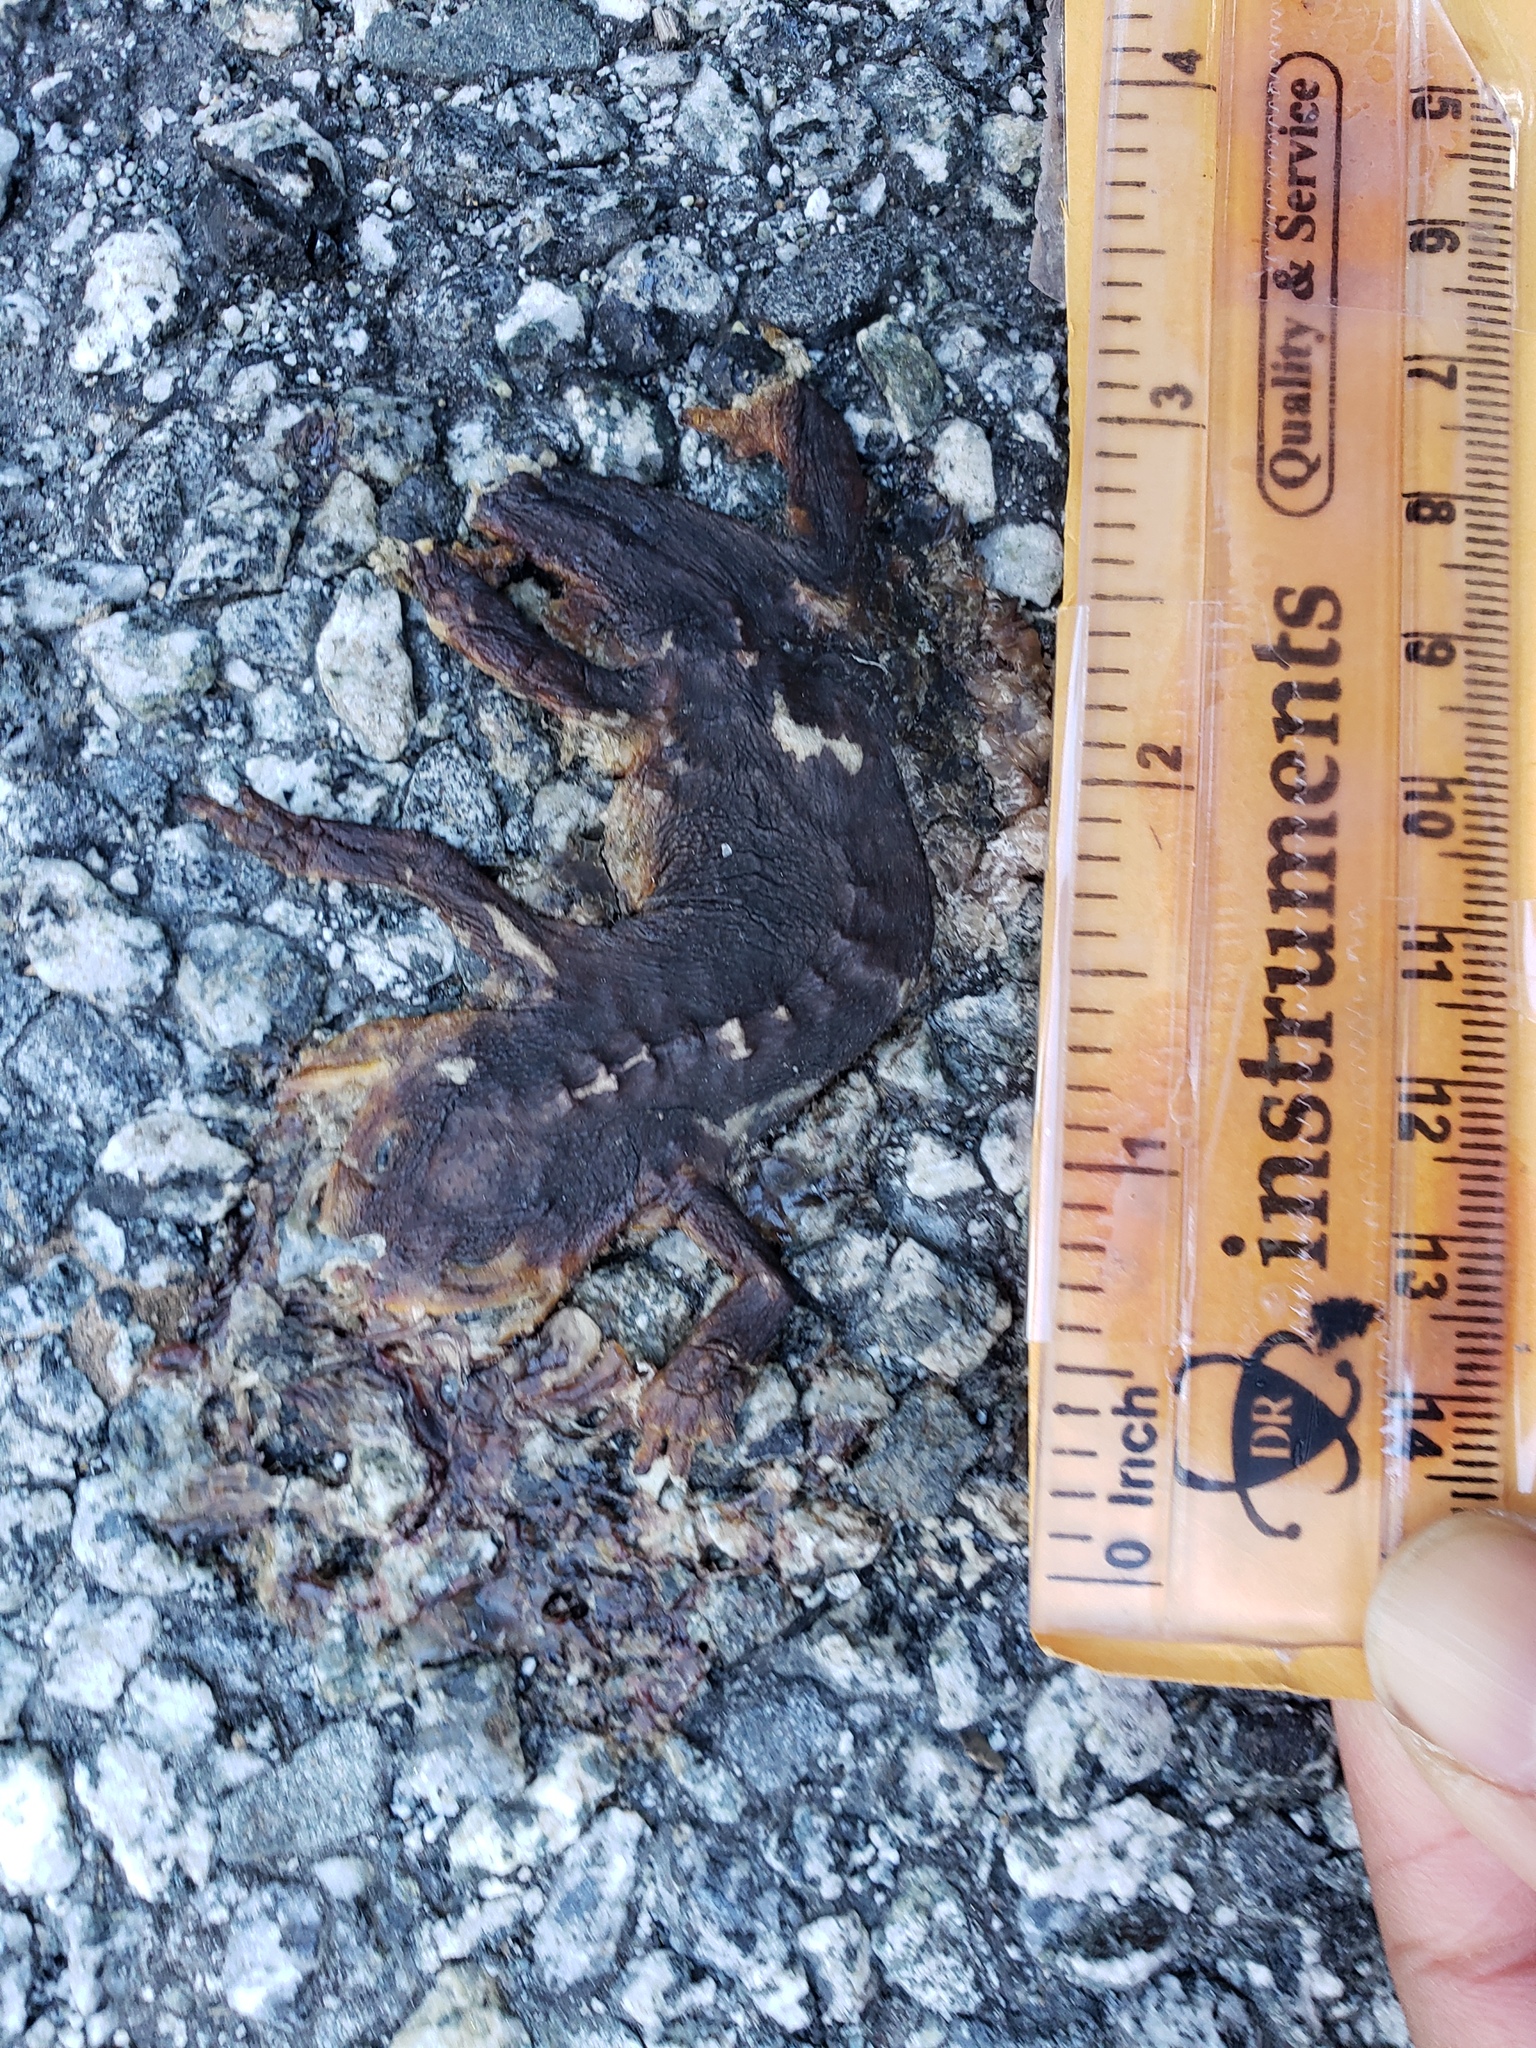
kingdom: Animalia
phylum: Chordata
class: Amphibia
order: Caudata
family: Salamandridae
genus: Taricha
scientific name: Taricha
